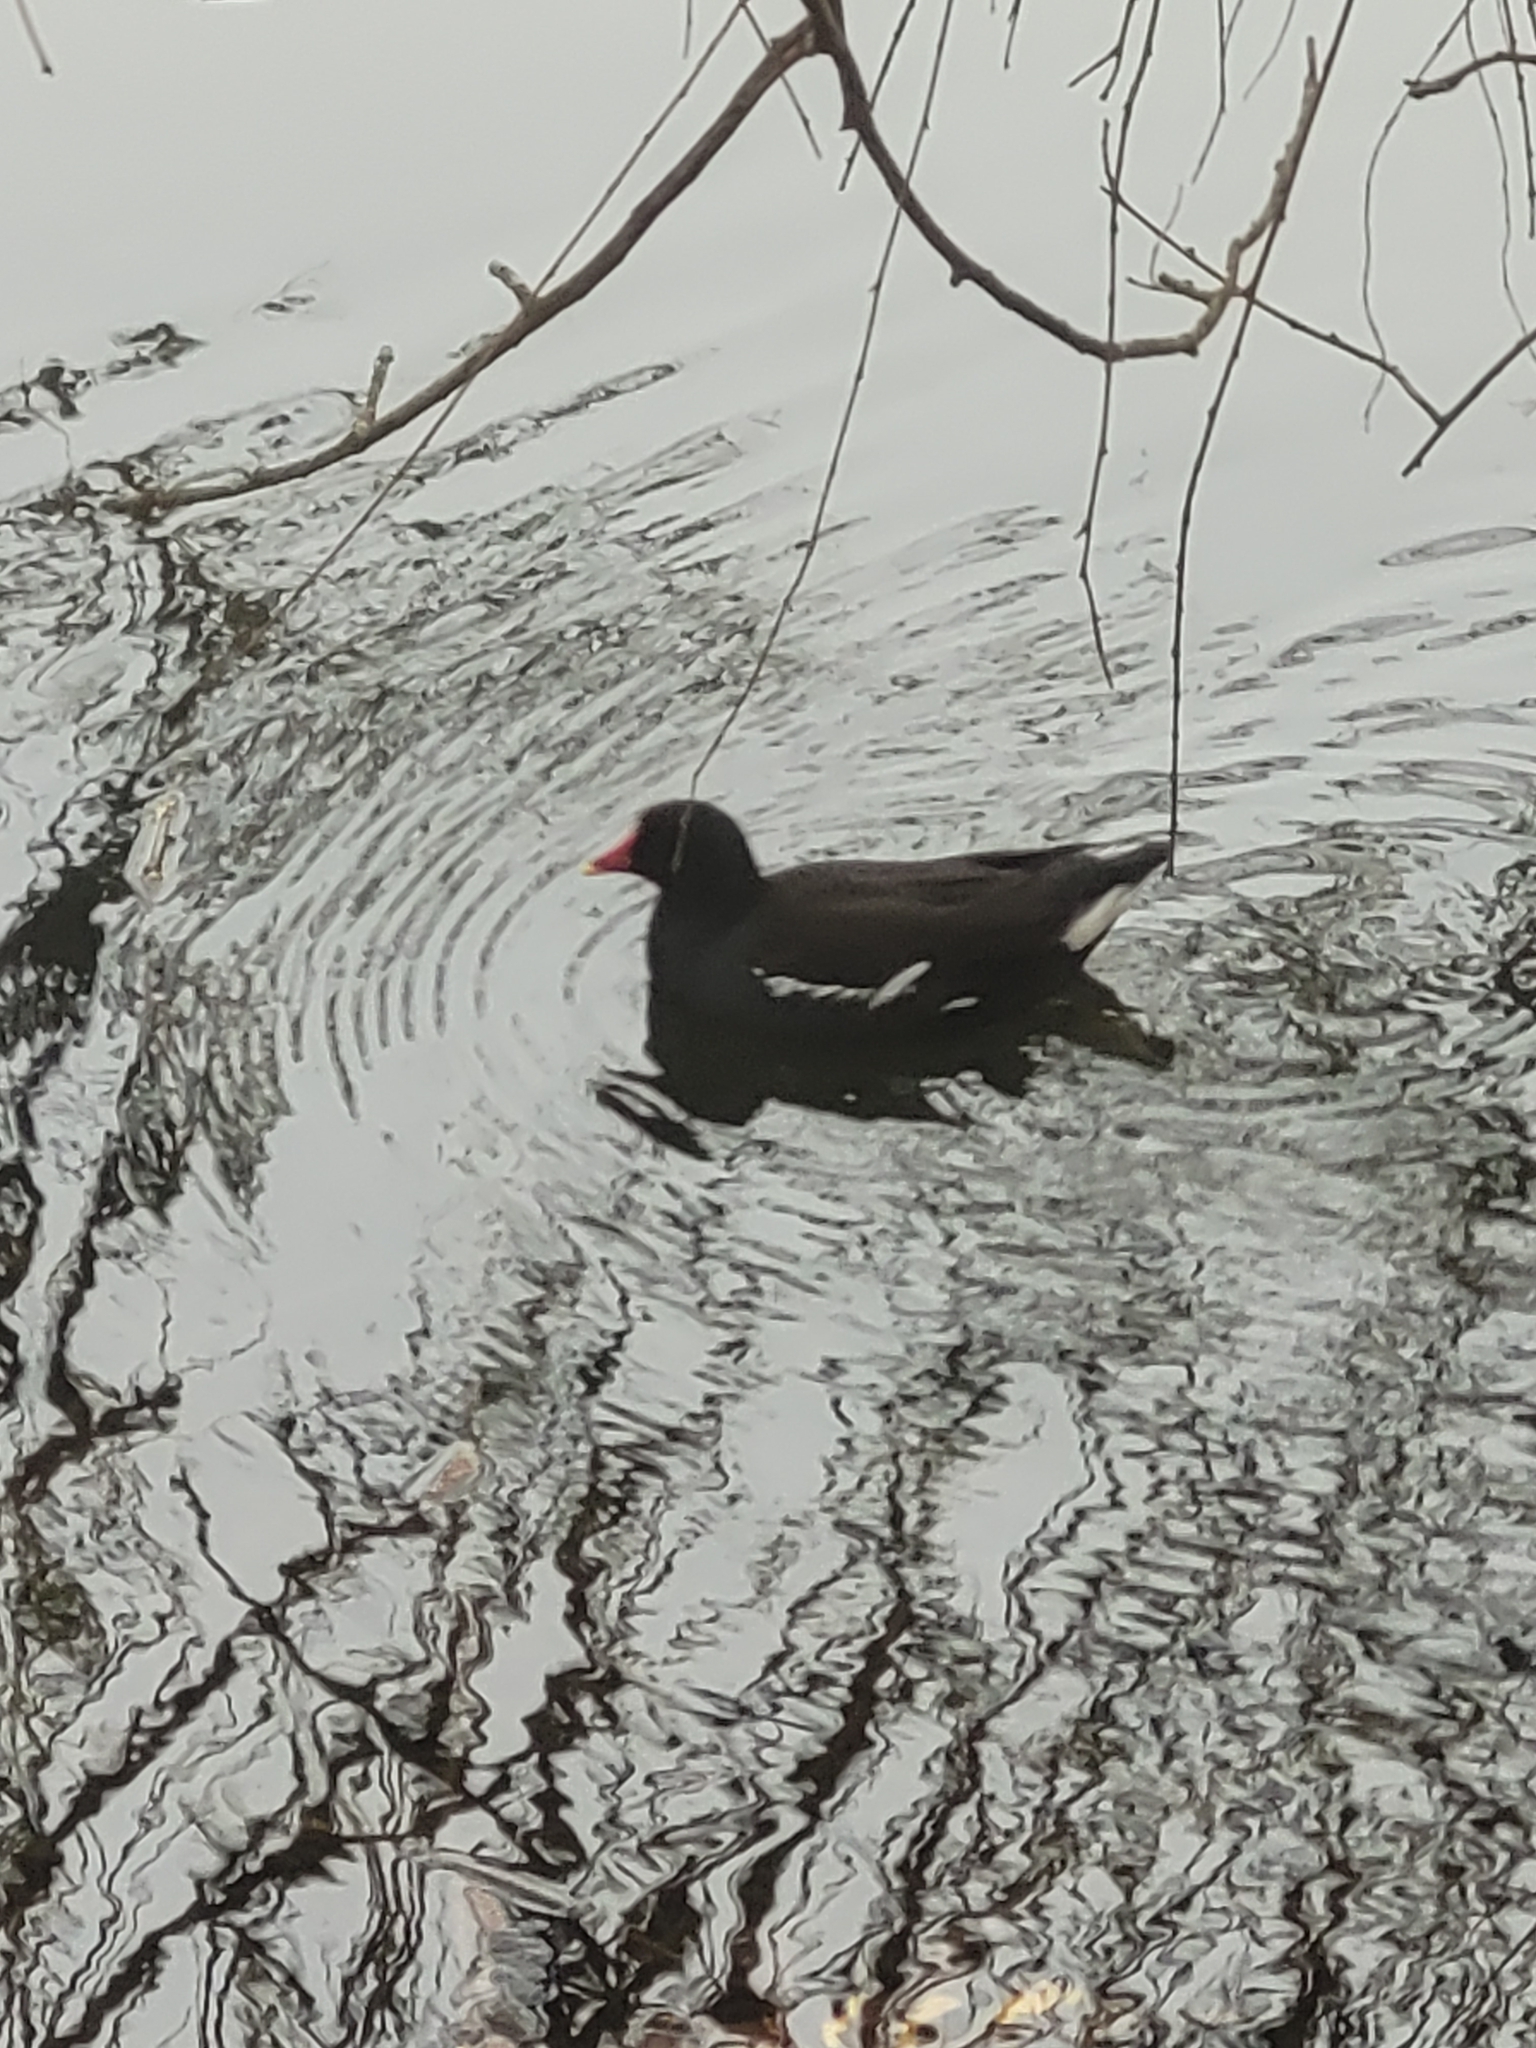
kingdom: Animalia
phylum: Chordata
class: Aves
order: Gruiformes
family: Rallidae
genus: Gallinula
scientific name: Gallinula chloropus
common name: Common moorhen
